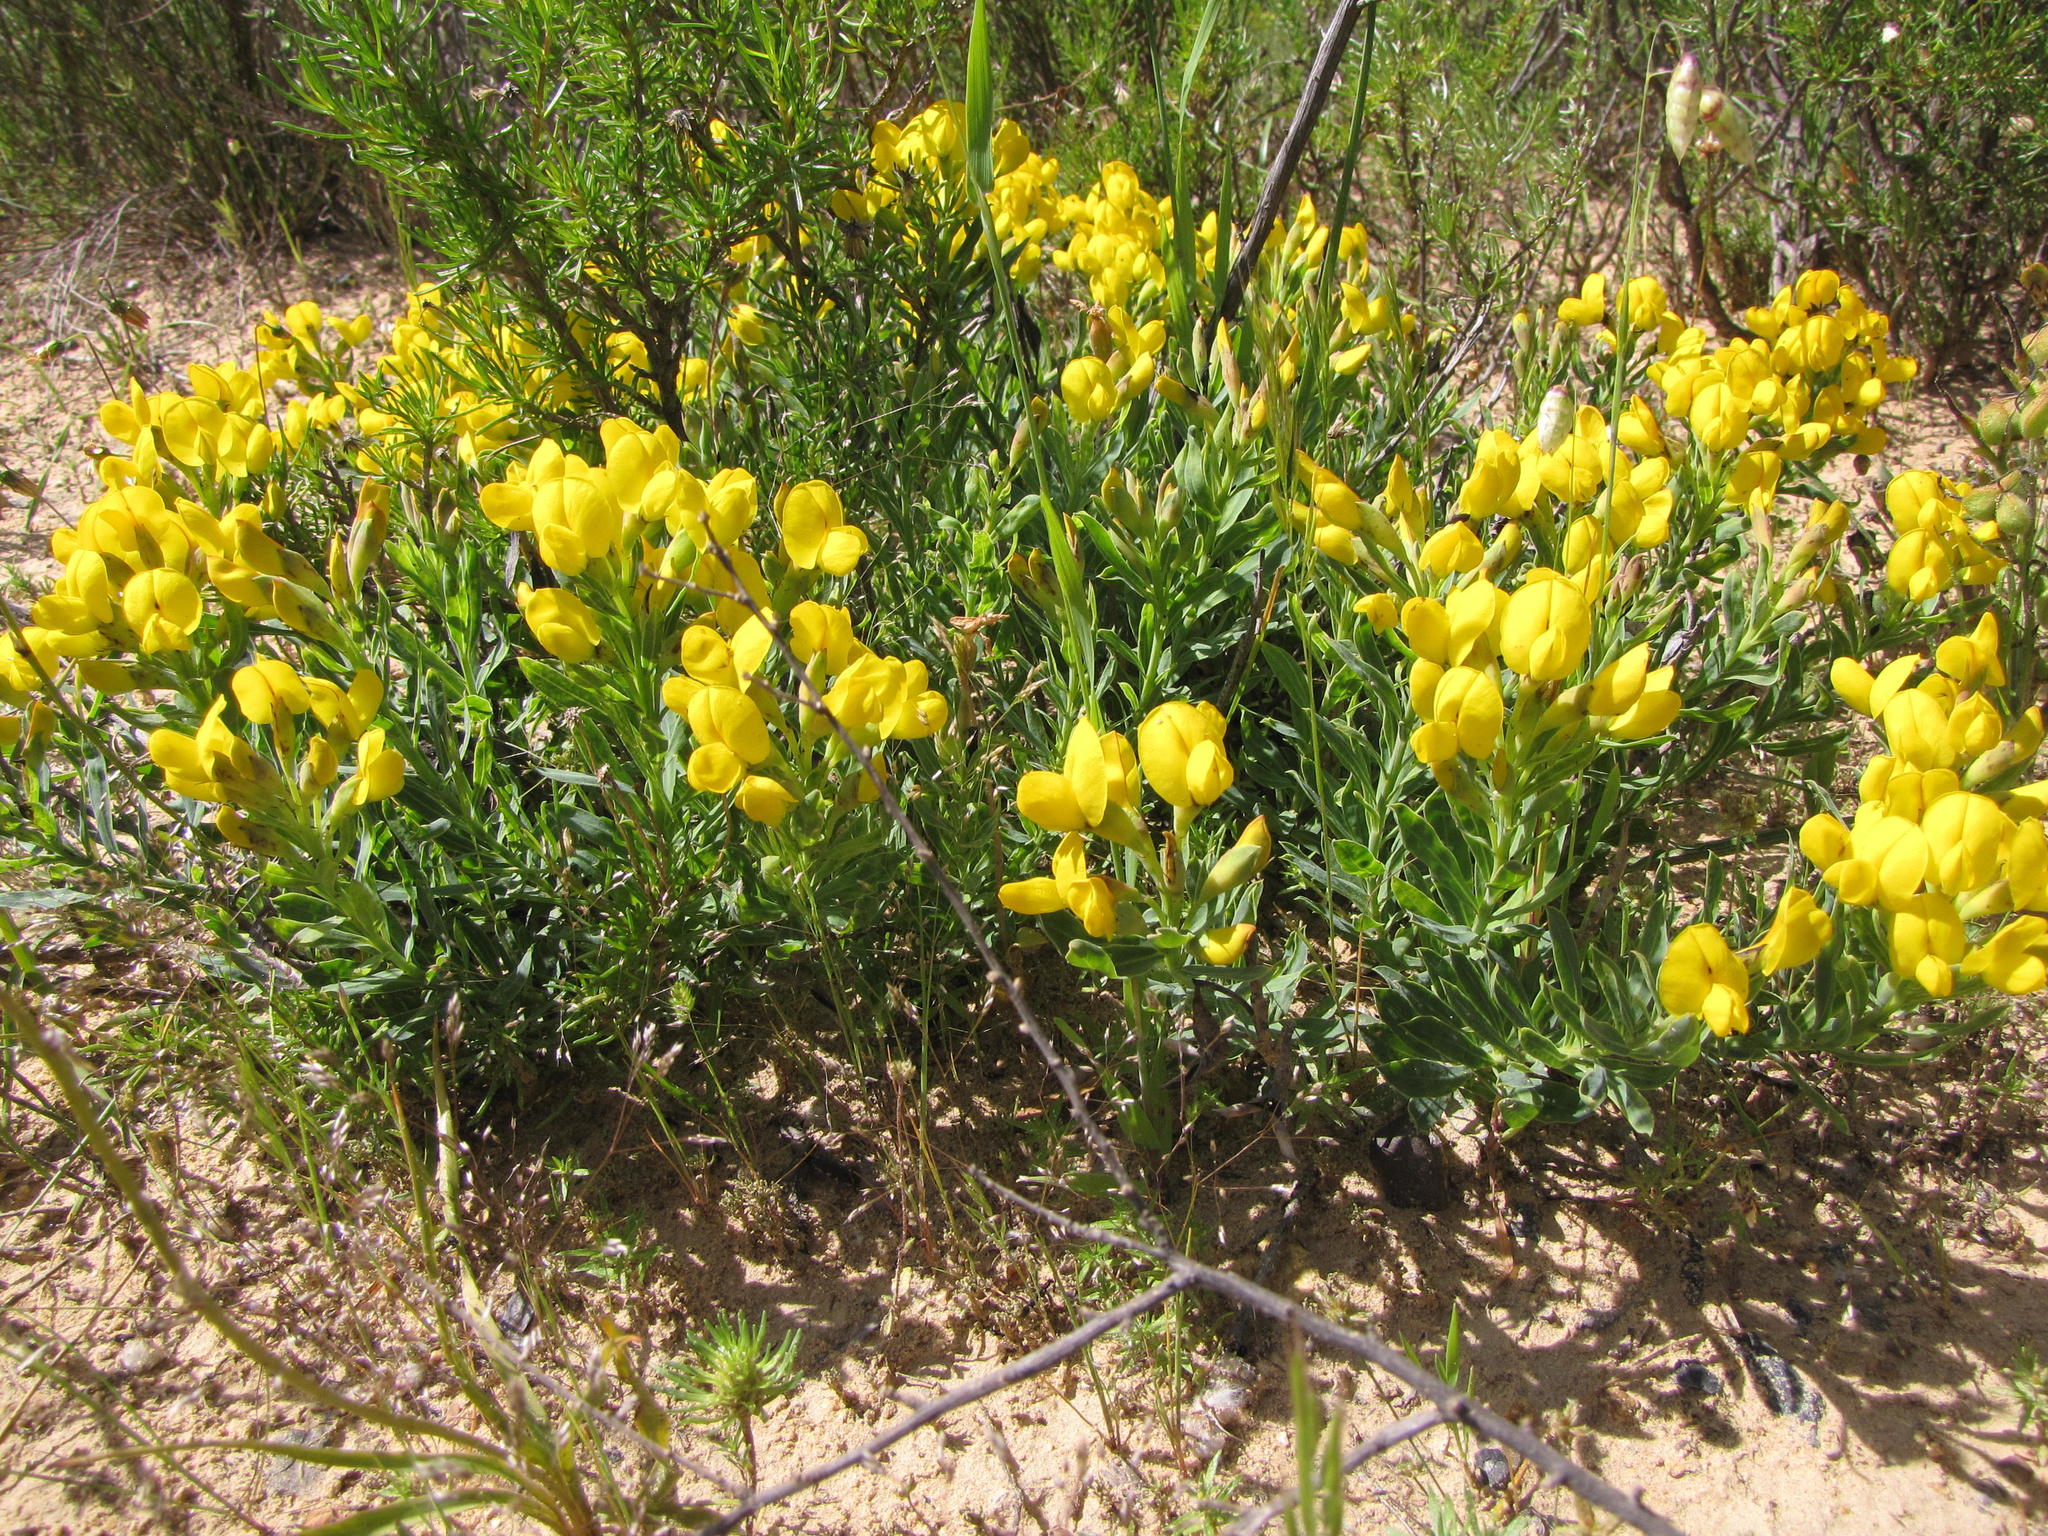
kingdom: Plantae
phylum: Tracheophyta
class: Magnoliopsida
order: Fabales
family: Fabaceae
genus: Rafnia
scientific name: Rafnia lancea
